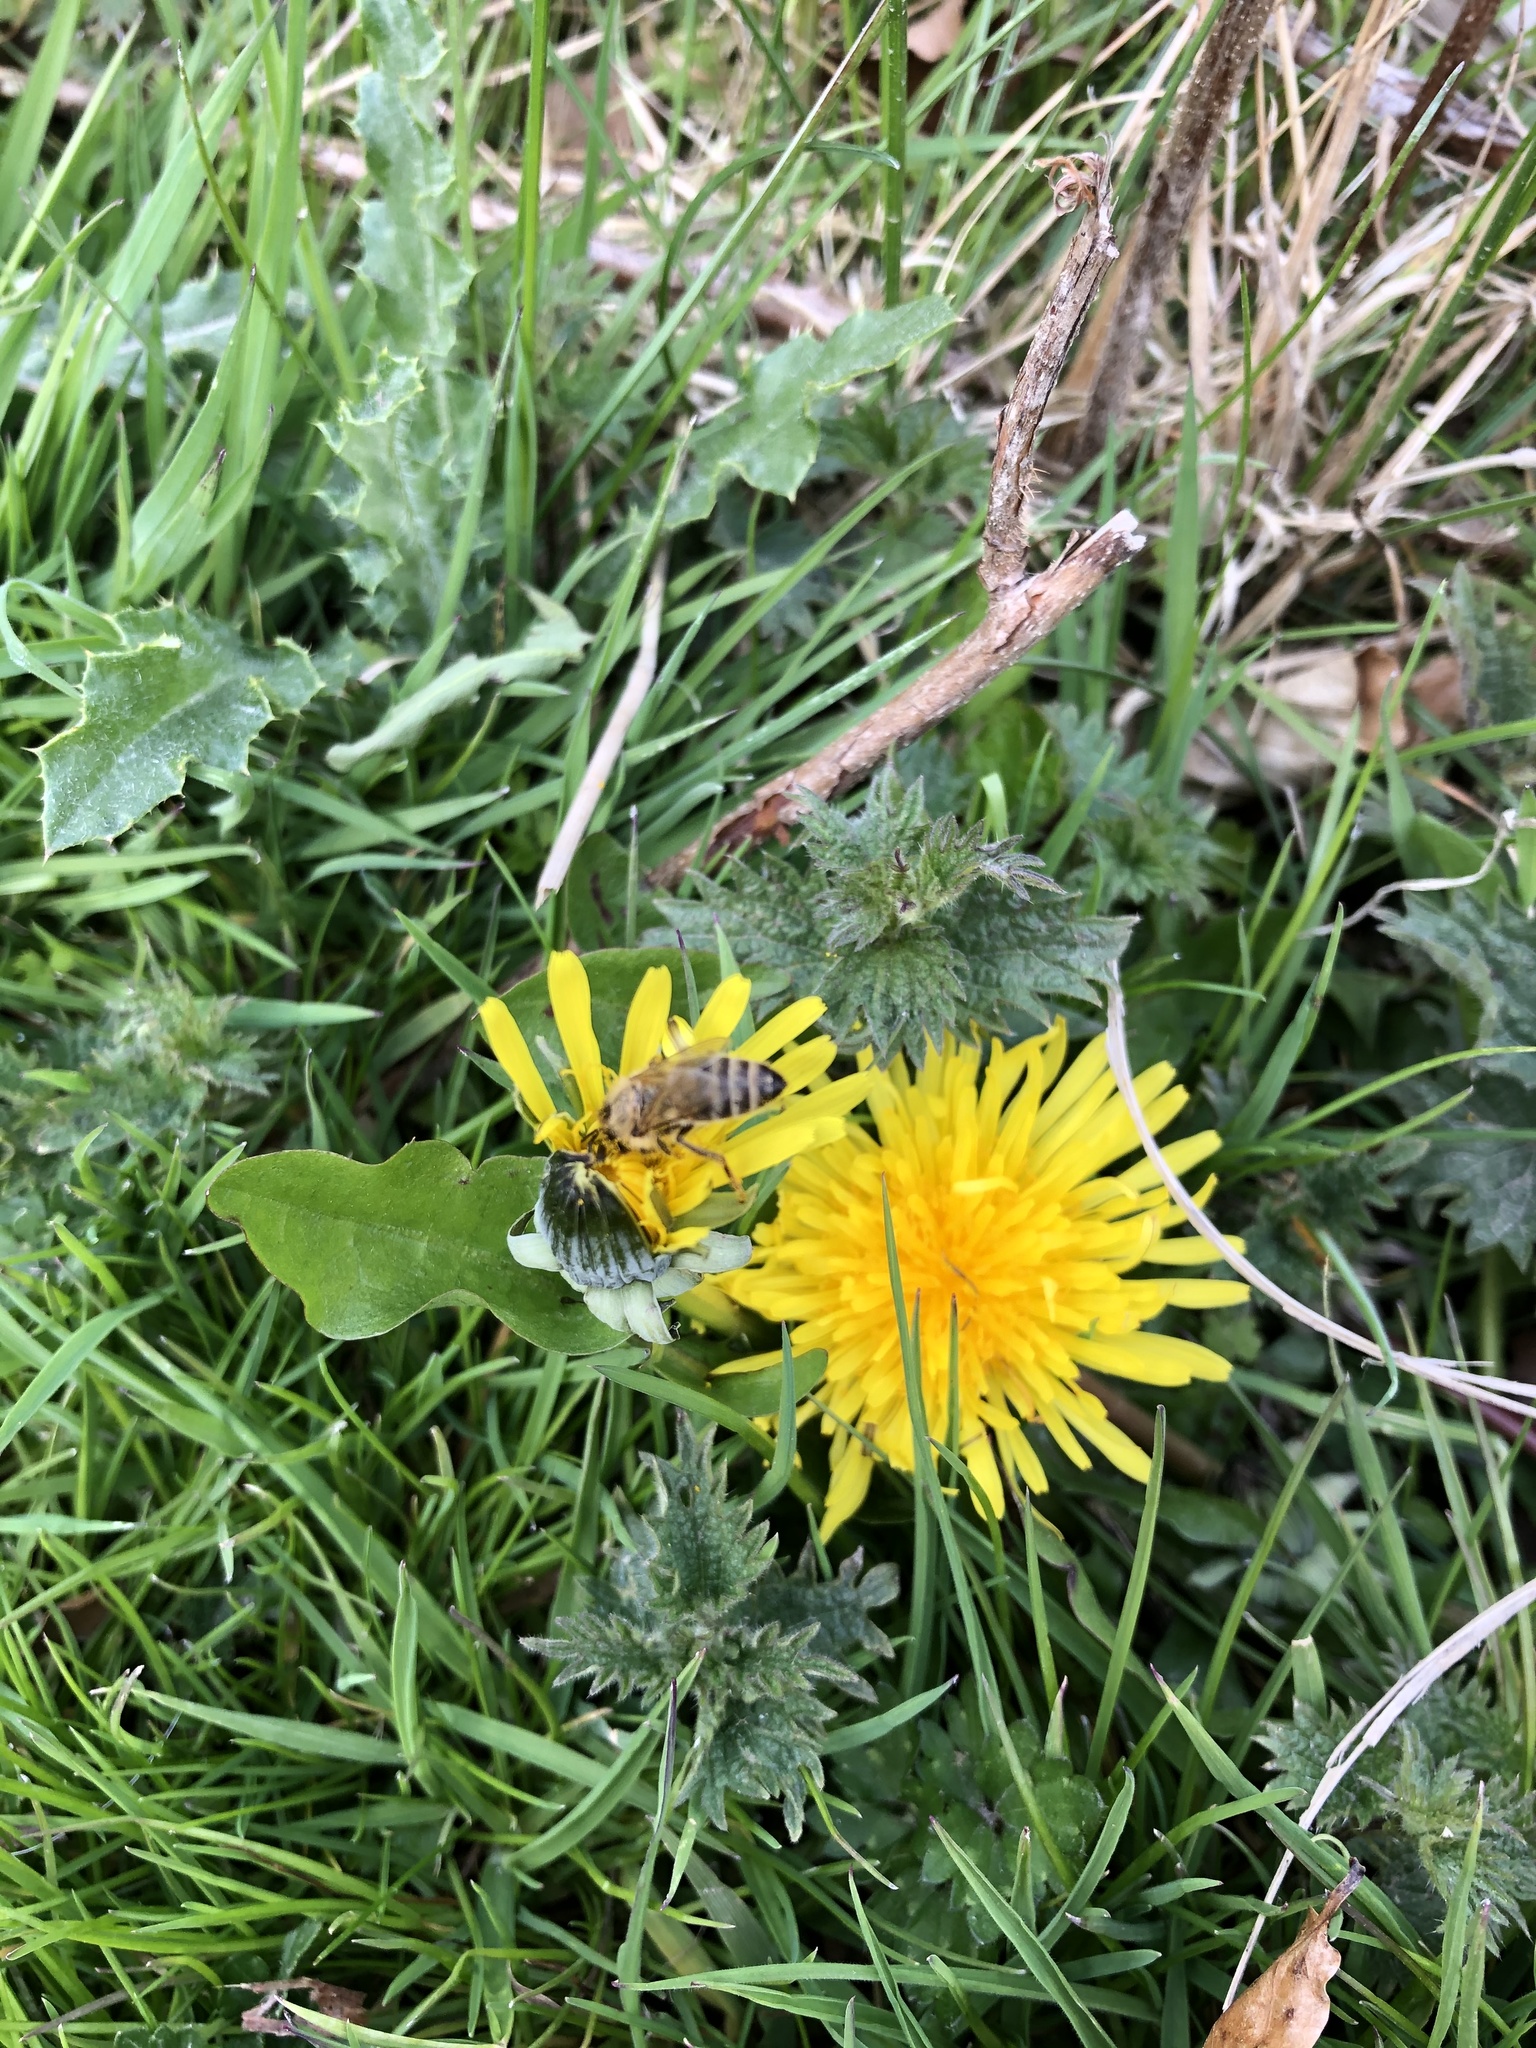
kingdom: Animalia
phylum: Arthropoda
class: Insecta
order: Hymenoptera
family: Apidae
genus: Apis
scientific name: Apis mellifera
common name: Honey bee
